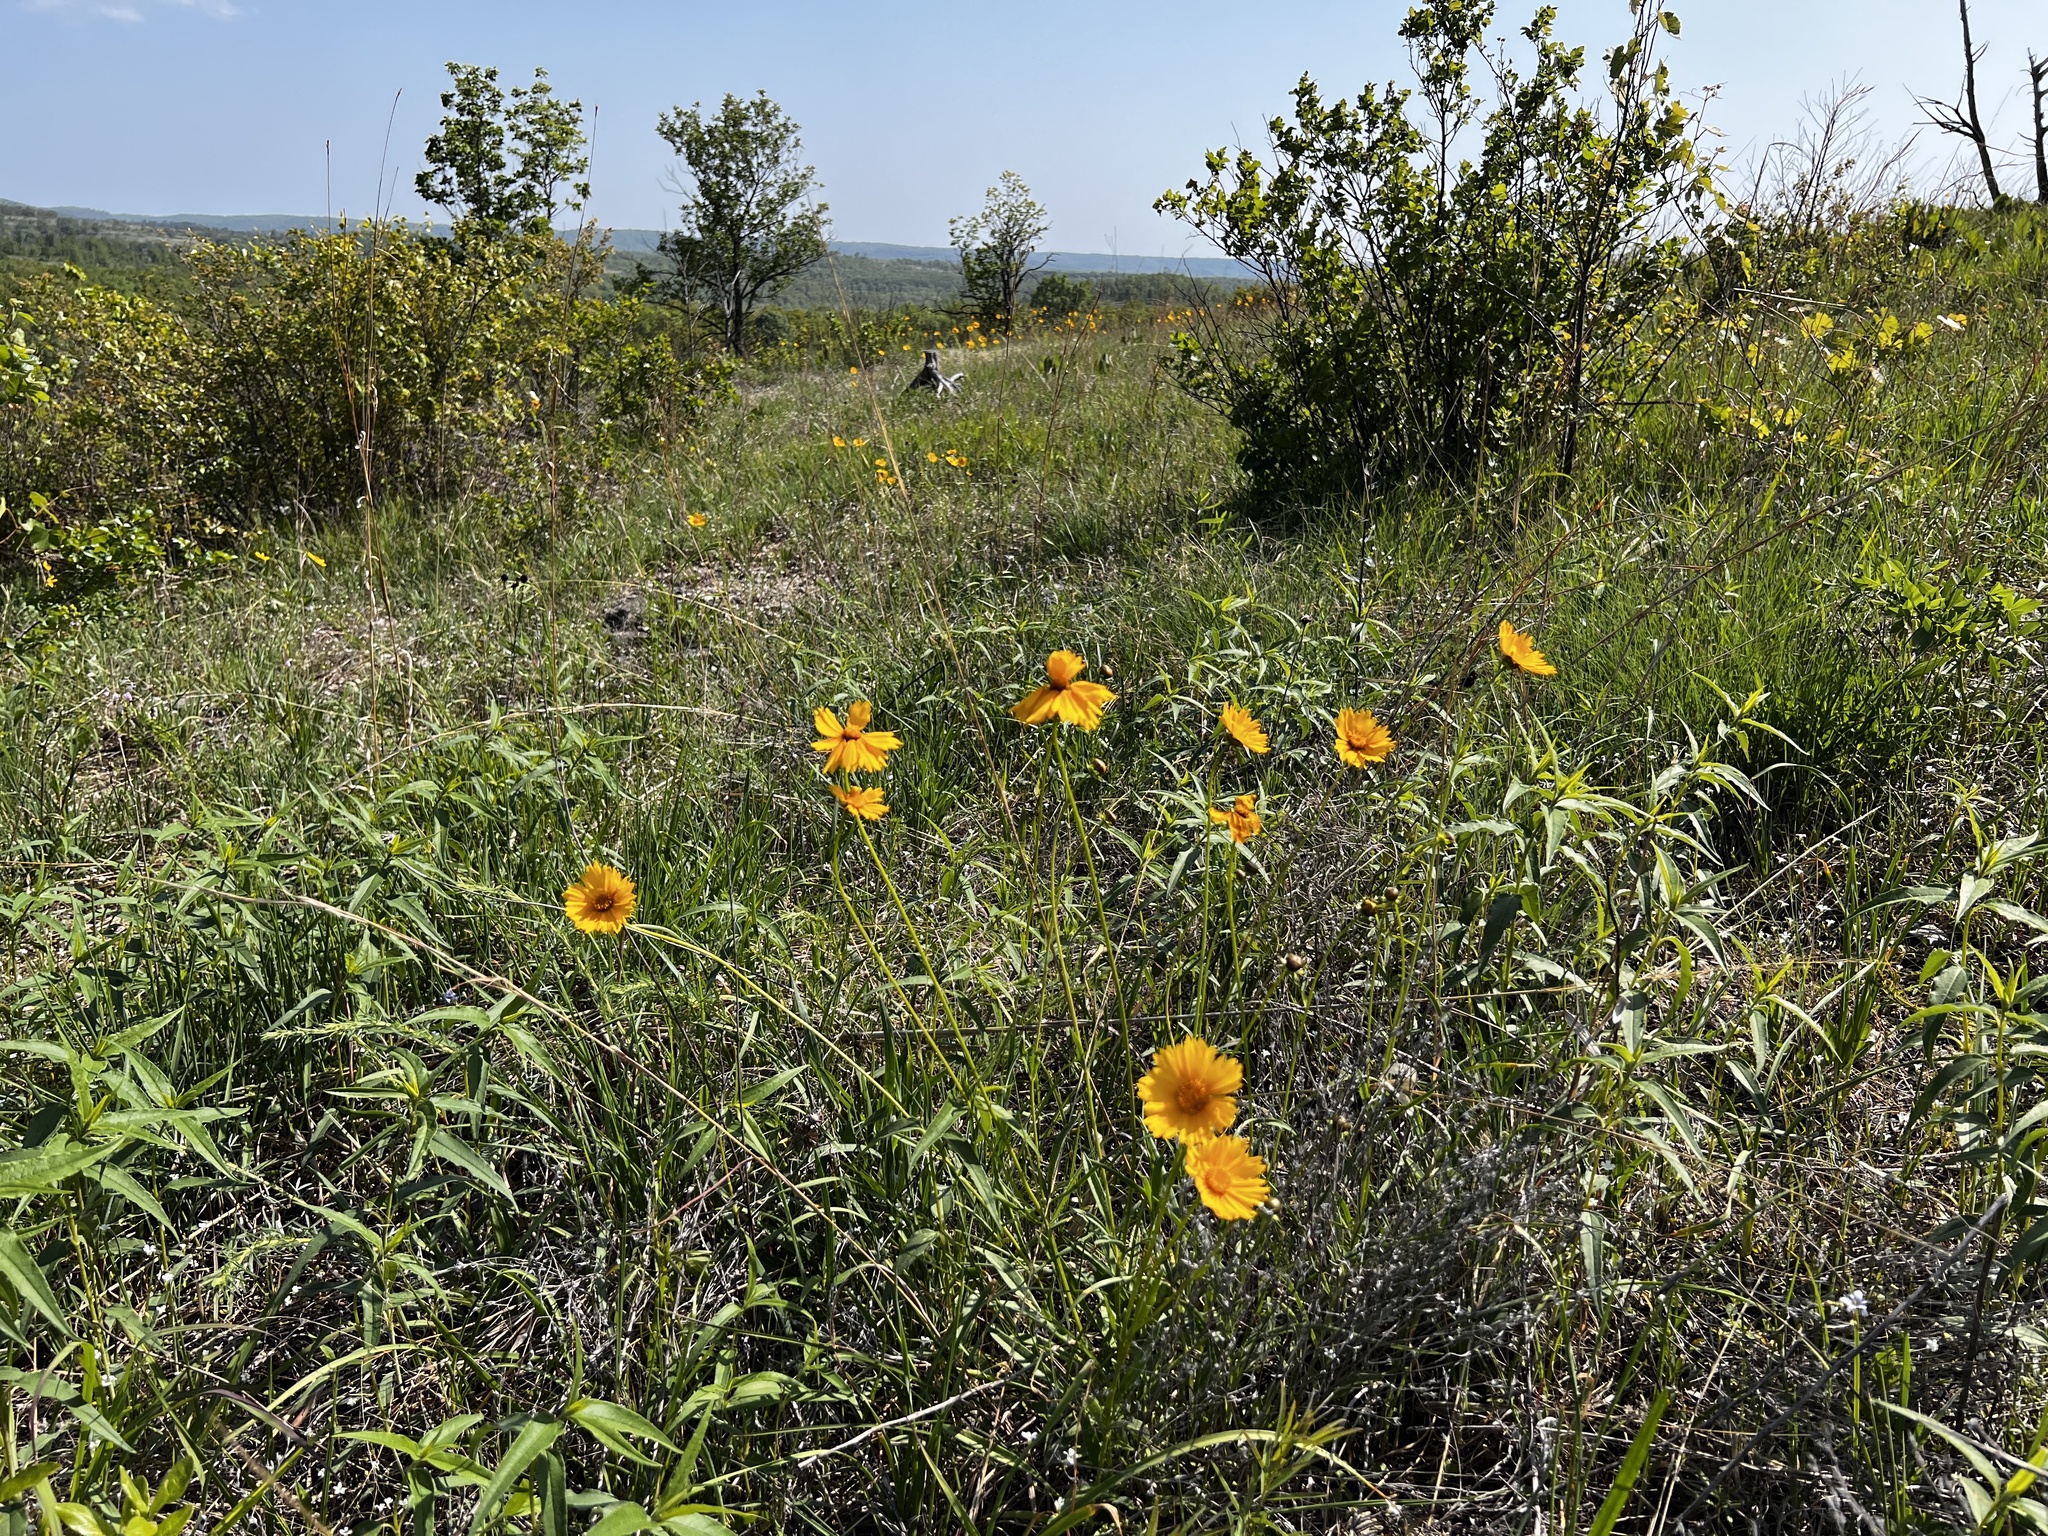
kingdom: Plantae
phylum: Tracheophyta
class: Magnoliopsida
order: Asterales
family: Asteraceae
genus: Coreopsis
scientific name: Coreopsis lanceolata
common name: Garden coreopsis
